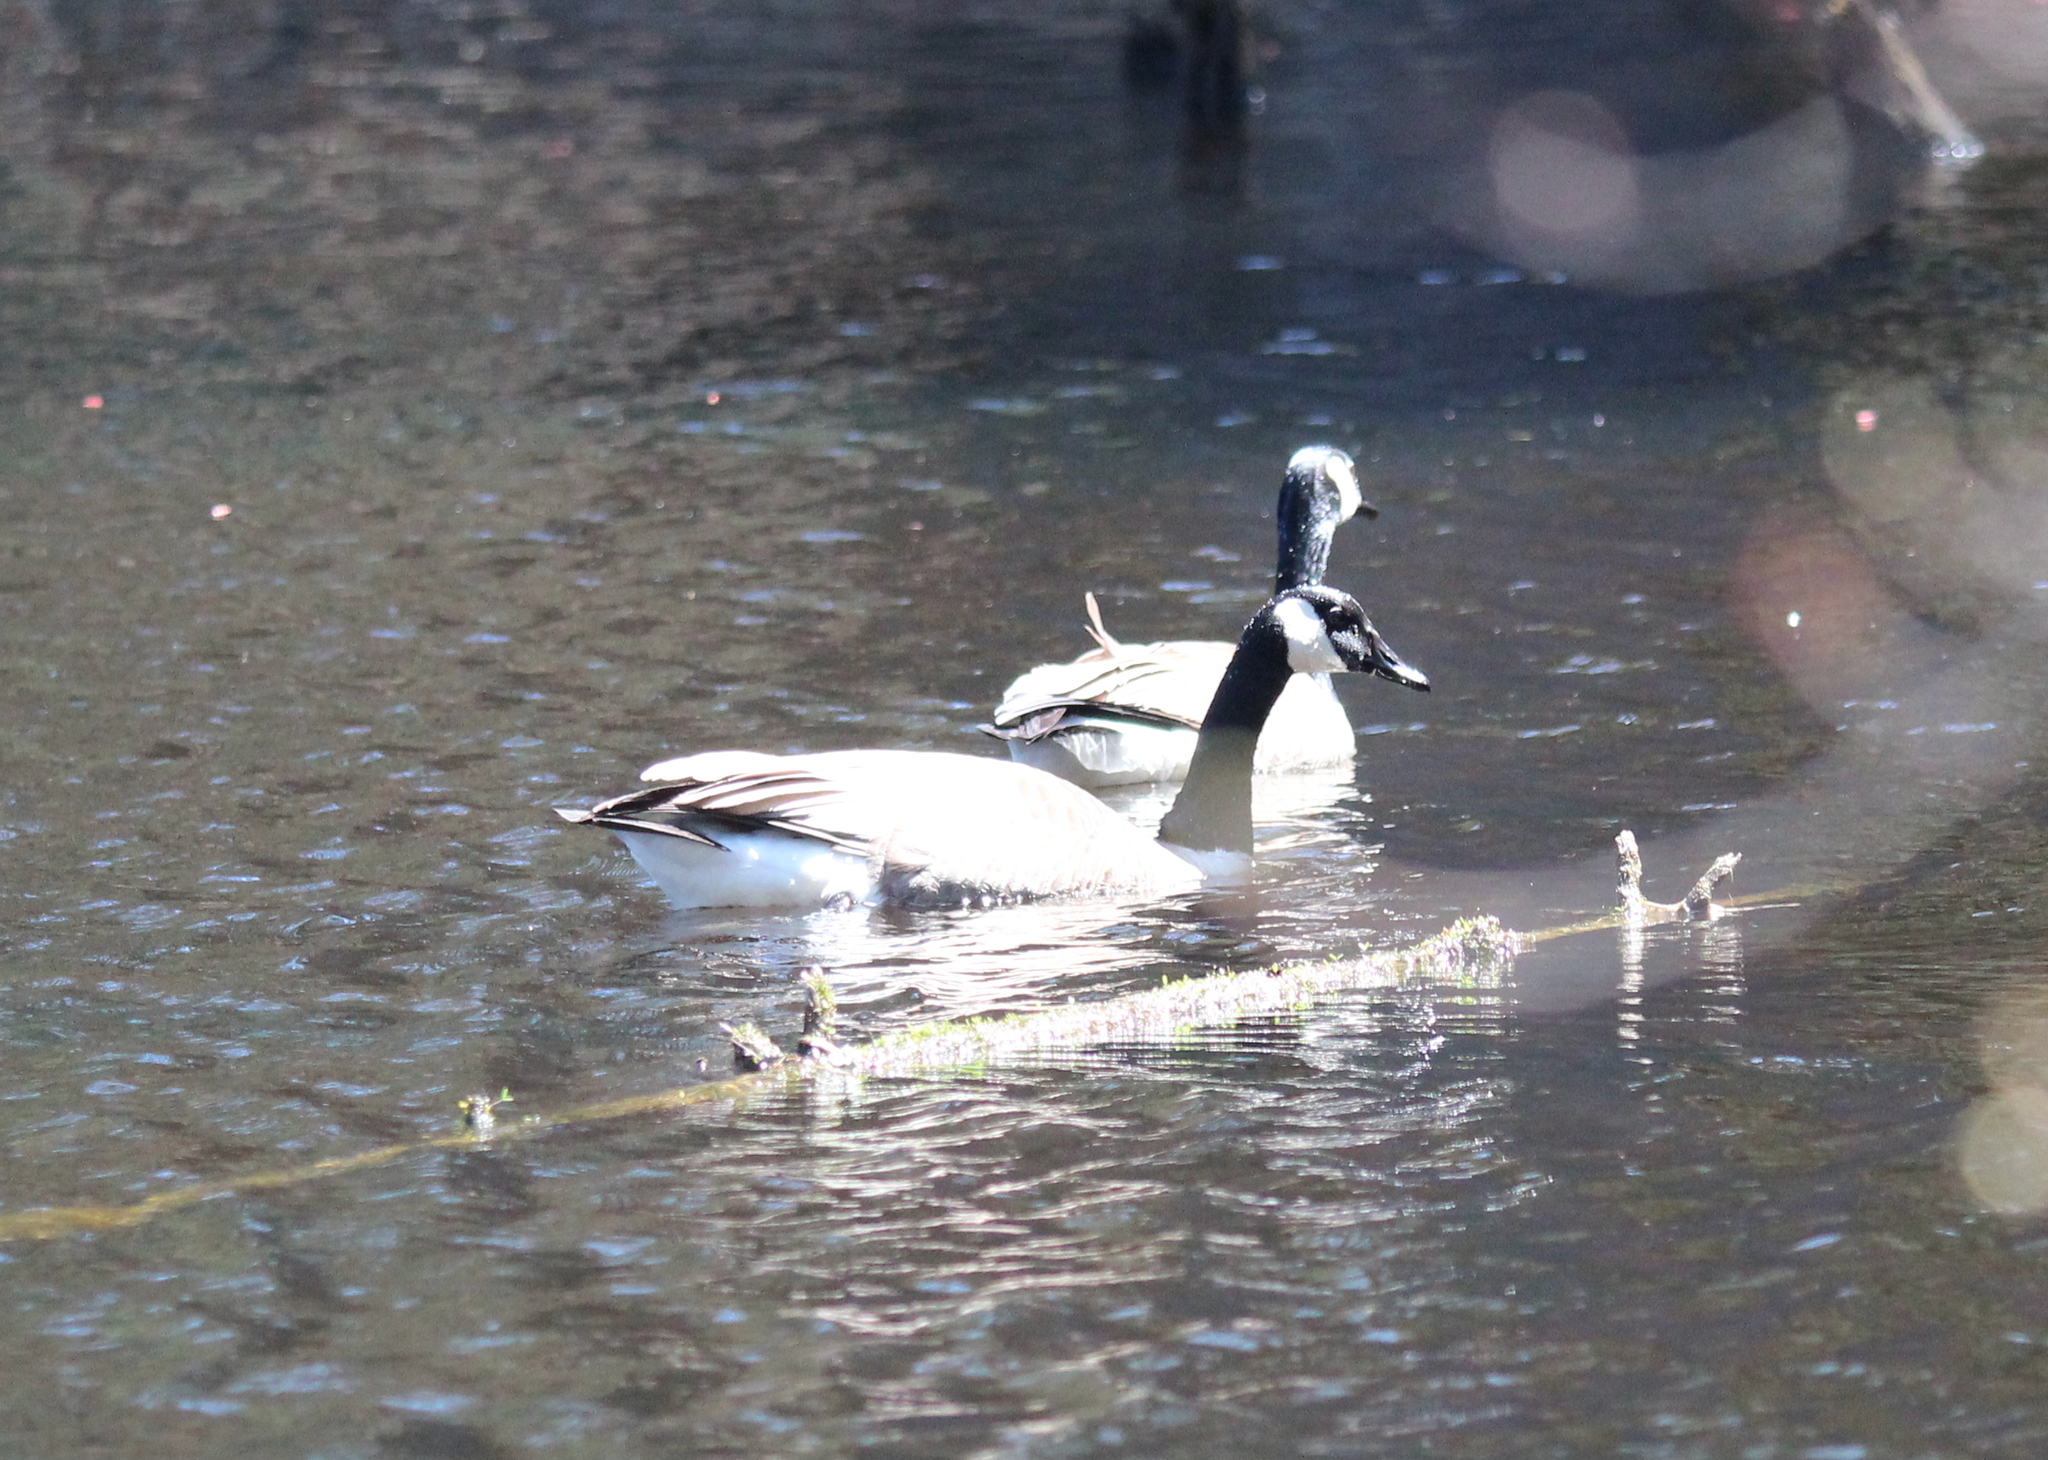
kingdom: Animalia
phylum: Chordata
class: Aves
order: Anseriformes
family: Anatidae
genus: Branta
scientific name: Branta canadensis
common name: Canada goose
